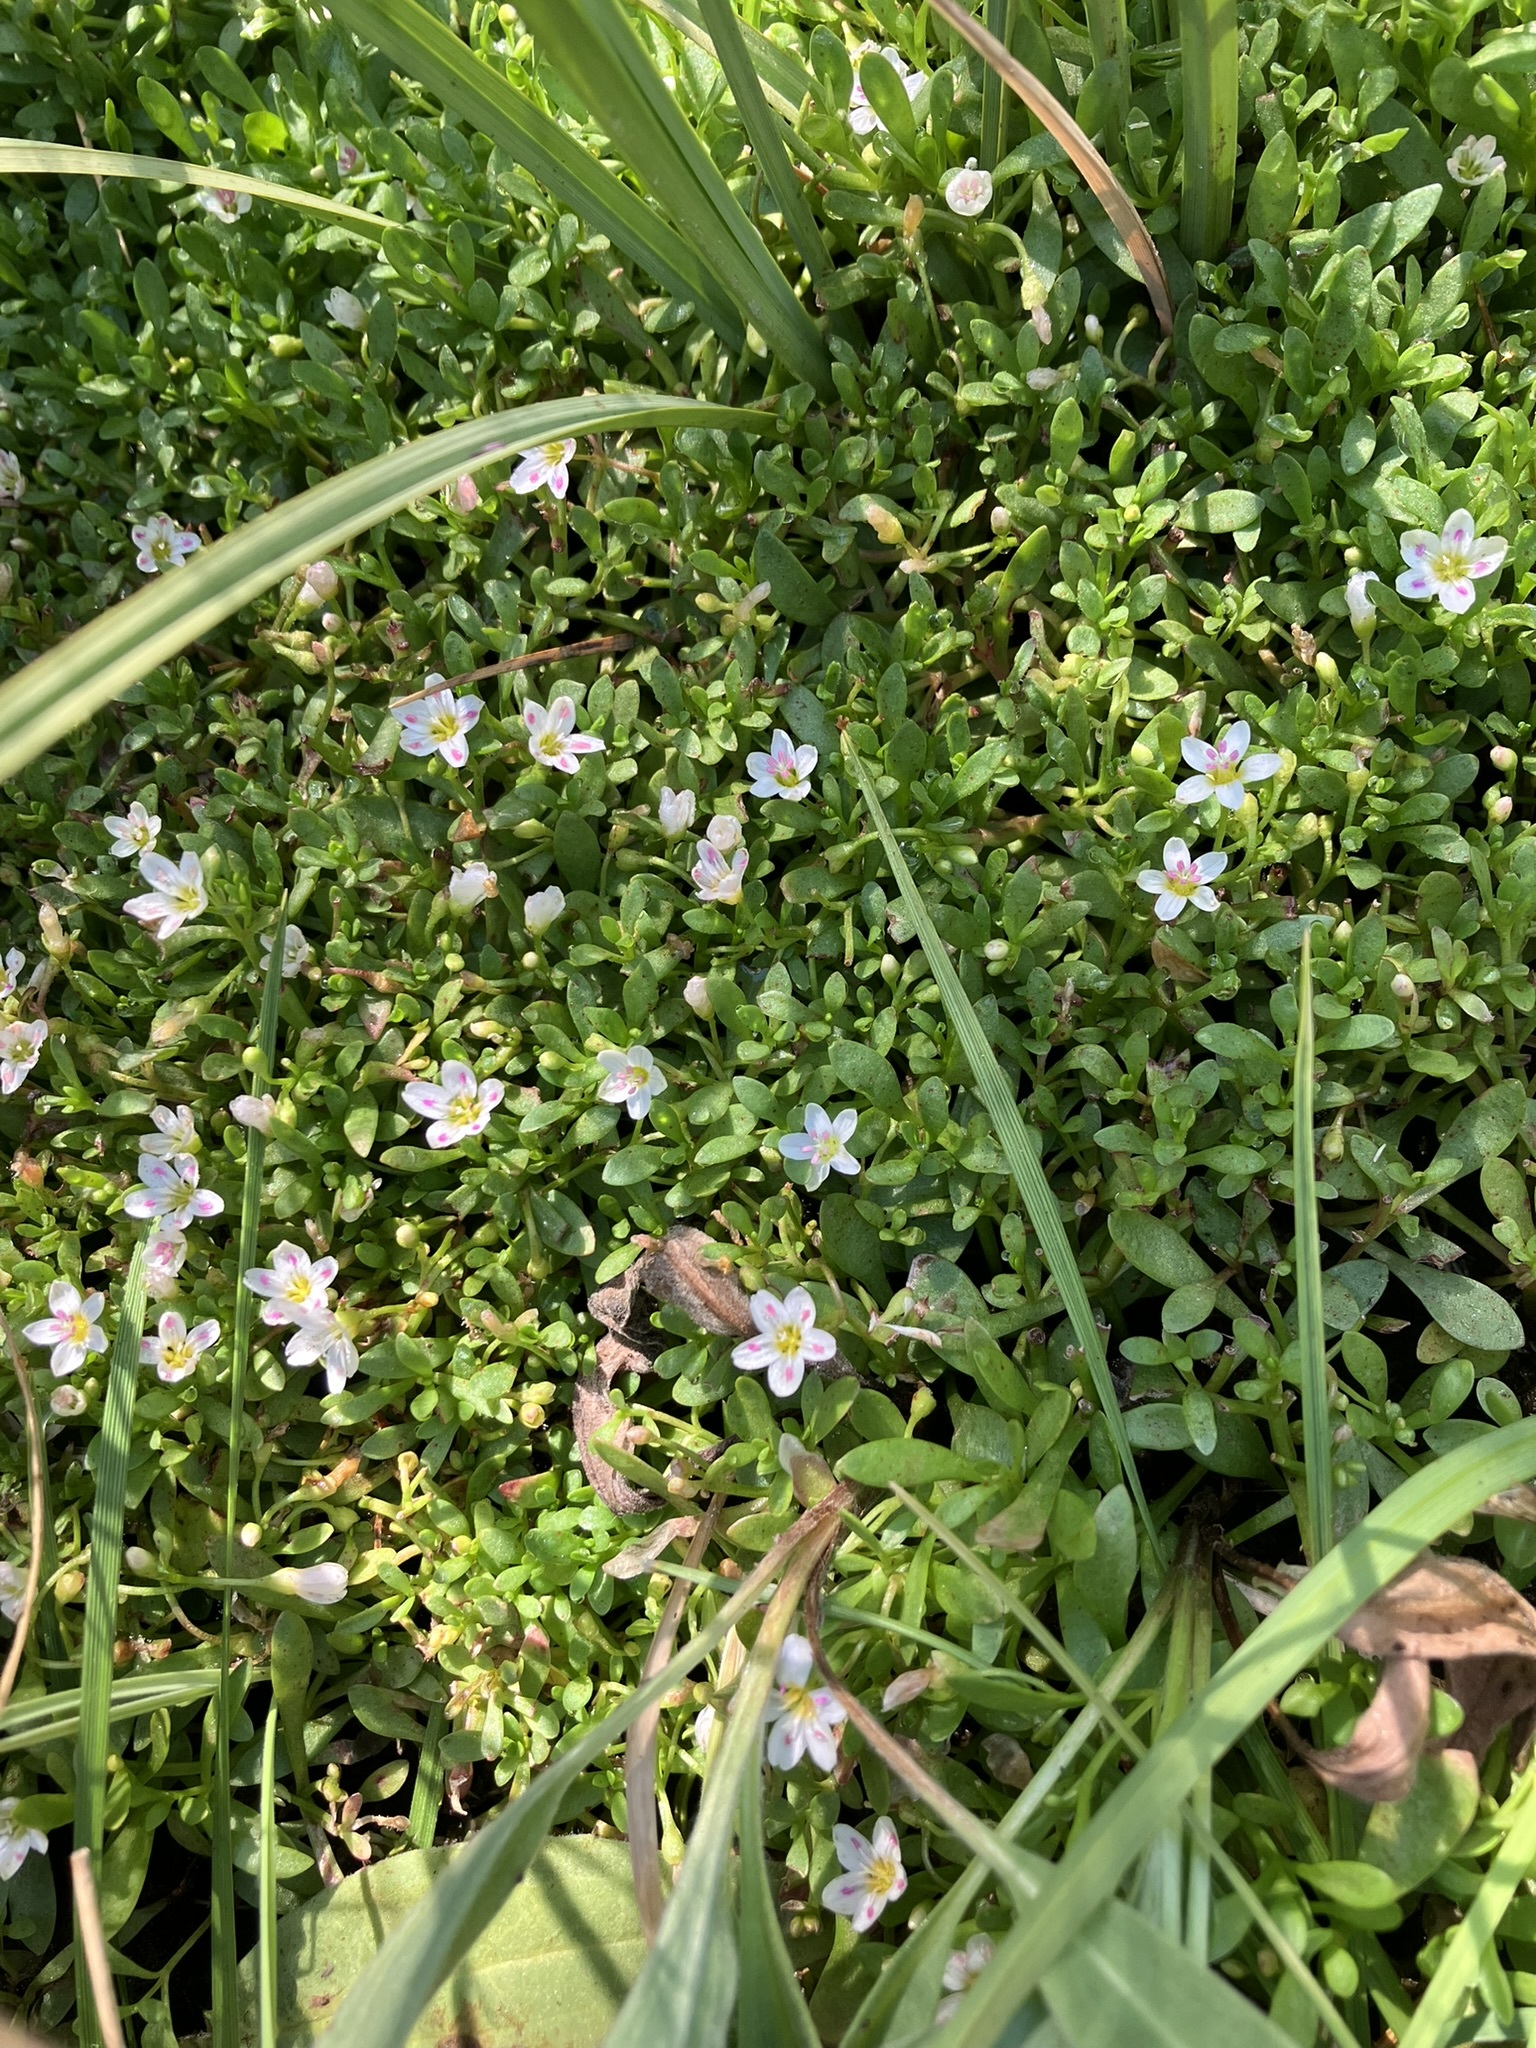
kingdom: Plantae
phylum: Tracheophyta
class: Magnoliopsida
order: Caryophyllales
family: Montiaceae
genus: Montia
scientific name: Montia chamissoi
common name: Chamisso's candyflower
